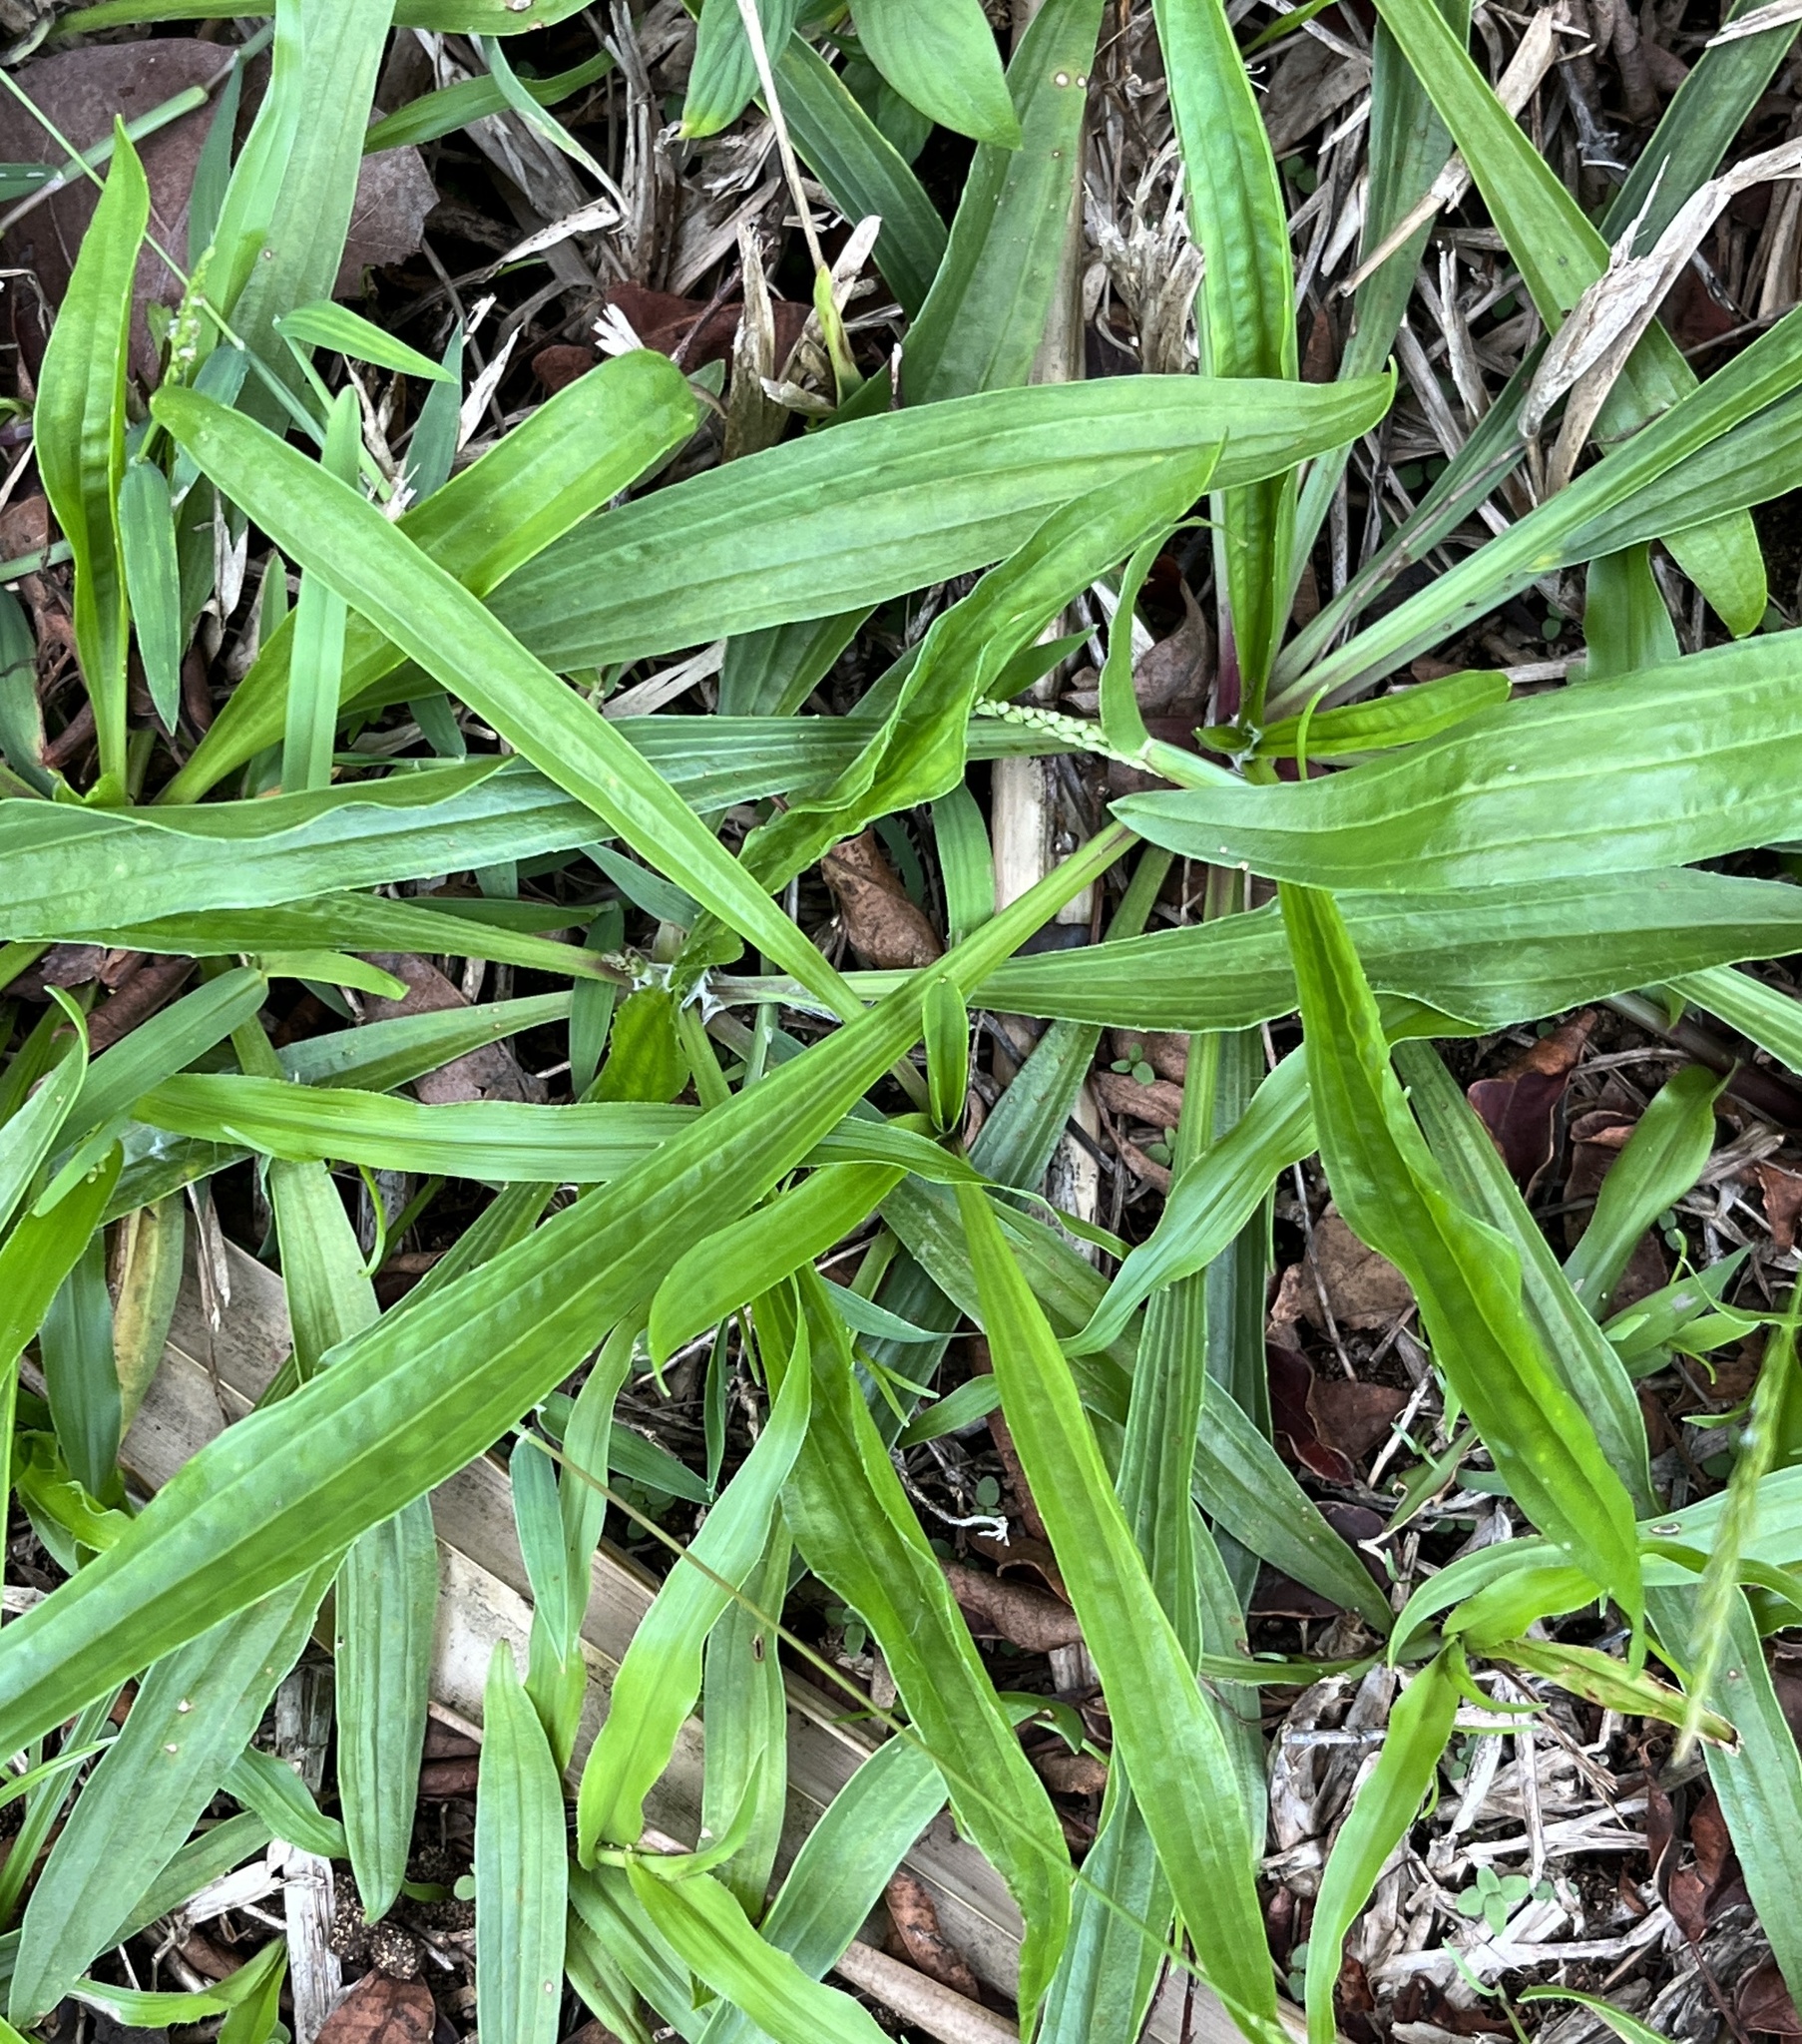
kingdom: Plantae
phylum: Tracheophyta
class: Magnoliopsida
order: Lamiales
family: Plantaginaceae
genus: Plantago
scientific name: Plantago lanceolata
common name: Ribwort plantain
